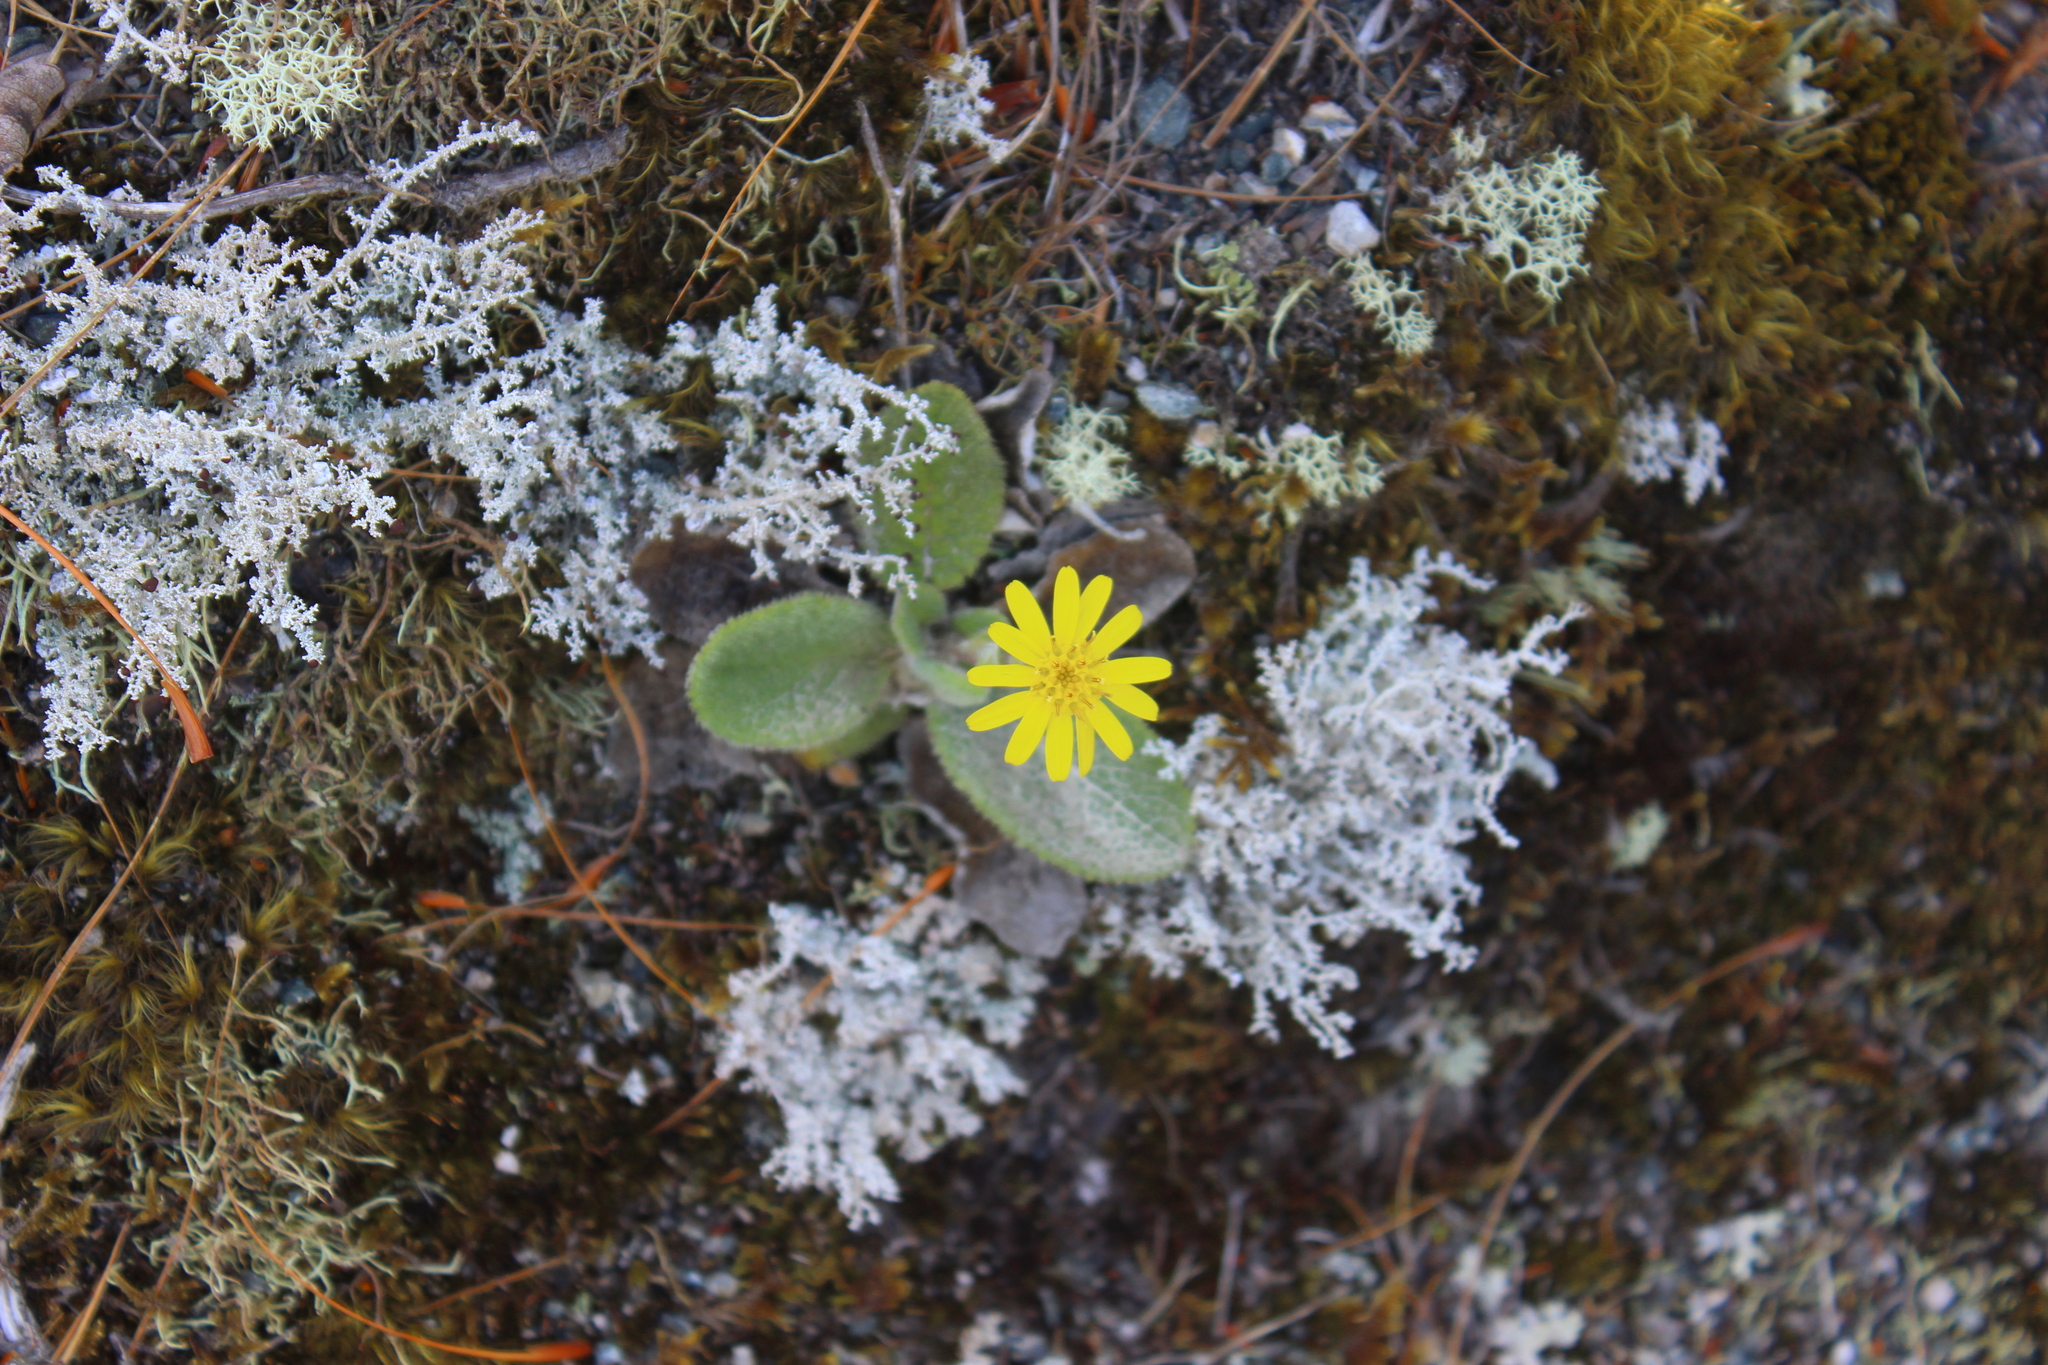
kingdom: Plantae
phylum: Tracheophyta
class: Magnoliopsida
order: Asterales
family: Asteraceae
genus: Brachyglottis
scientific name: Brachyglottis lagopus
